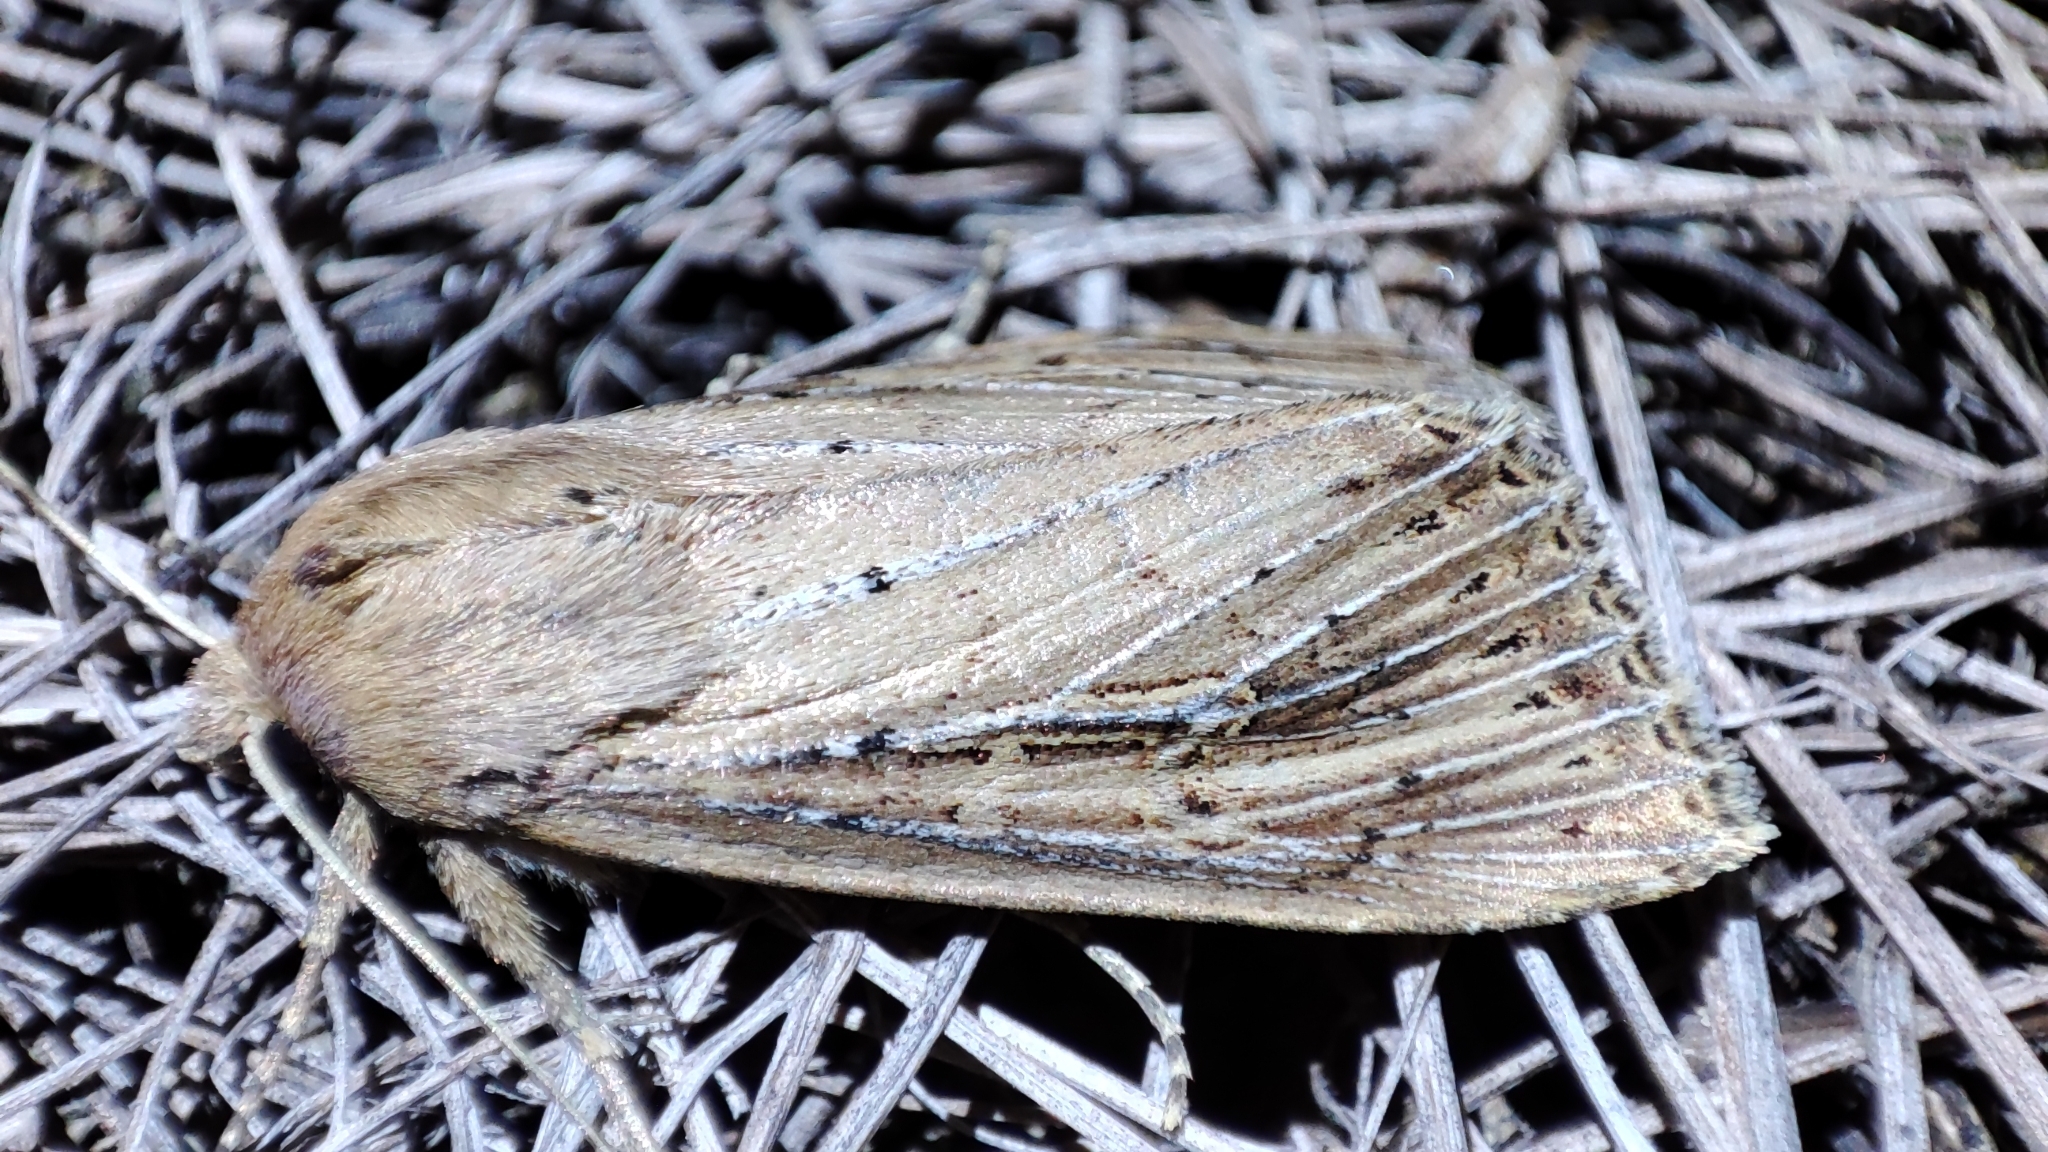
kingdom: Animalia
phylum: Arthropoda
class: Insecta
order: Lepidoptera
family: Noctuidae
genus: Nonagria
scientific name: Nonagria typhae
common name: Bulrush wainscot
